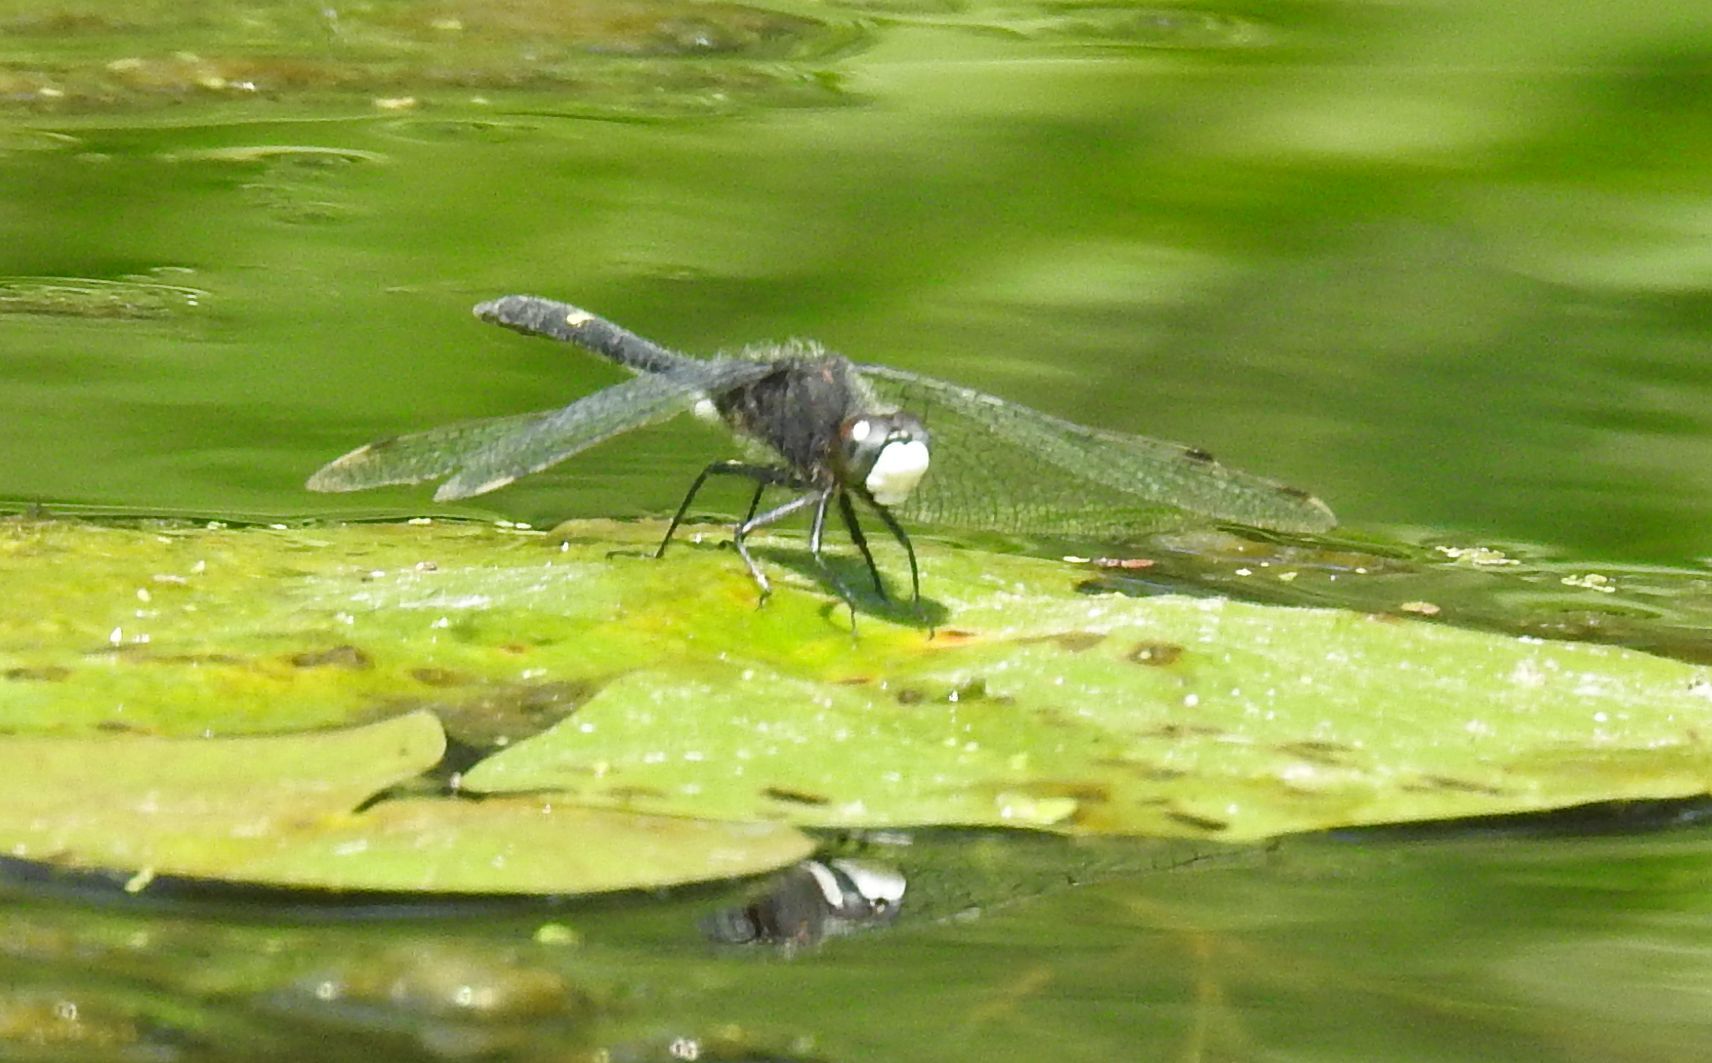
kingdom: Animalia
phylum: Arthropoda
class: Insecta
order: Odonata
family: Libellulidae
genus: Leucorrhinia
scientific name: Leucorrhinia intacta
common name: Dot-tailed whiteface
